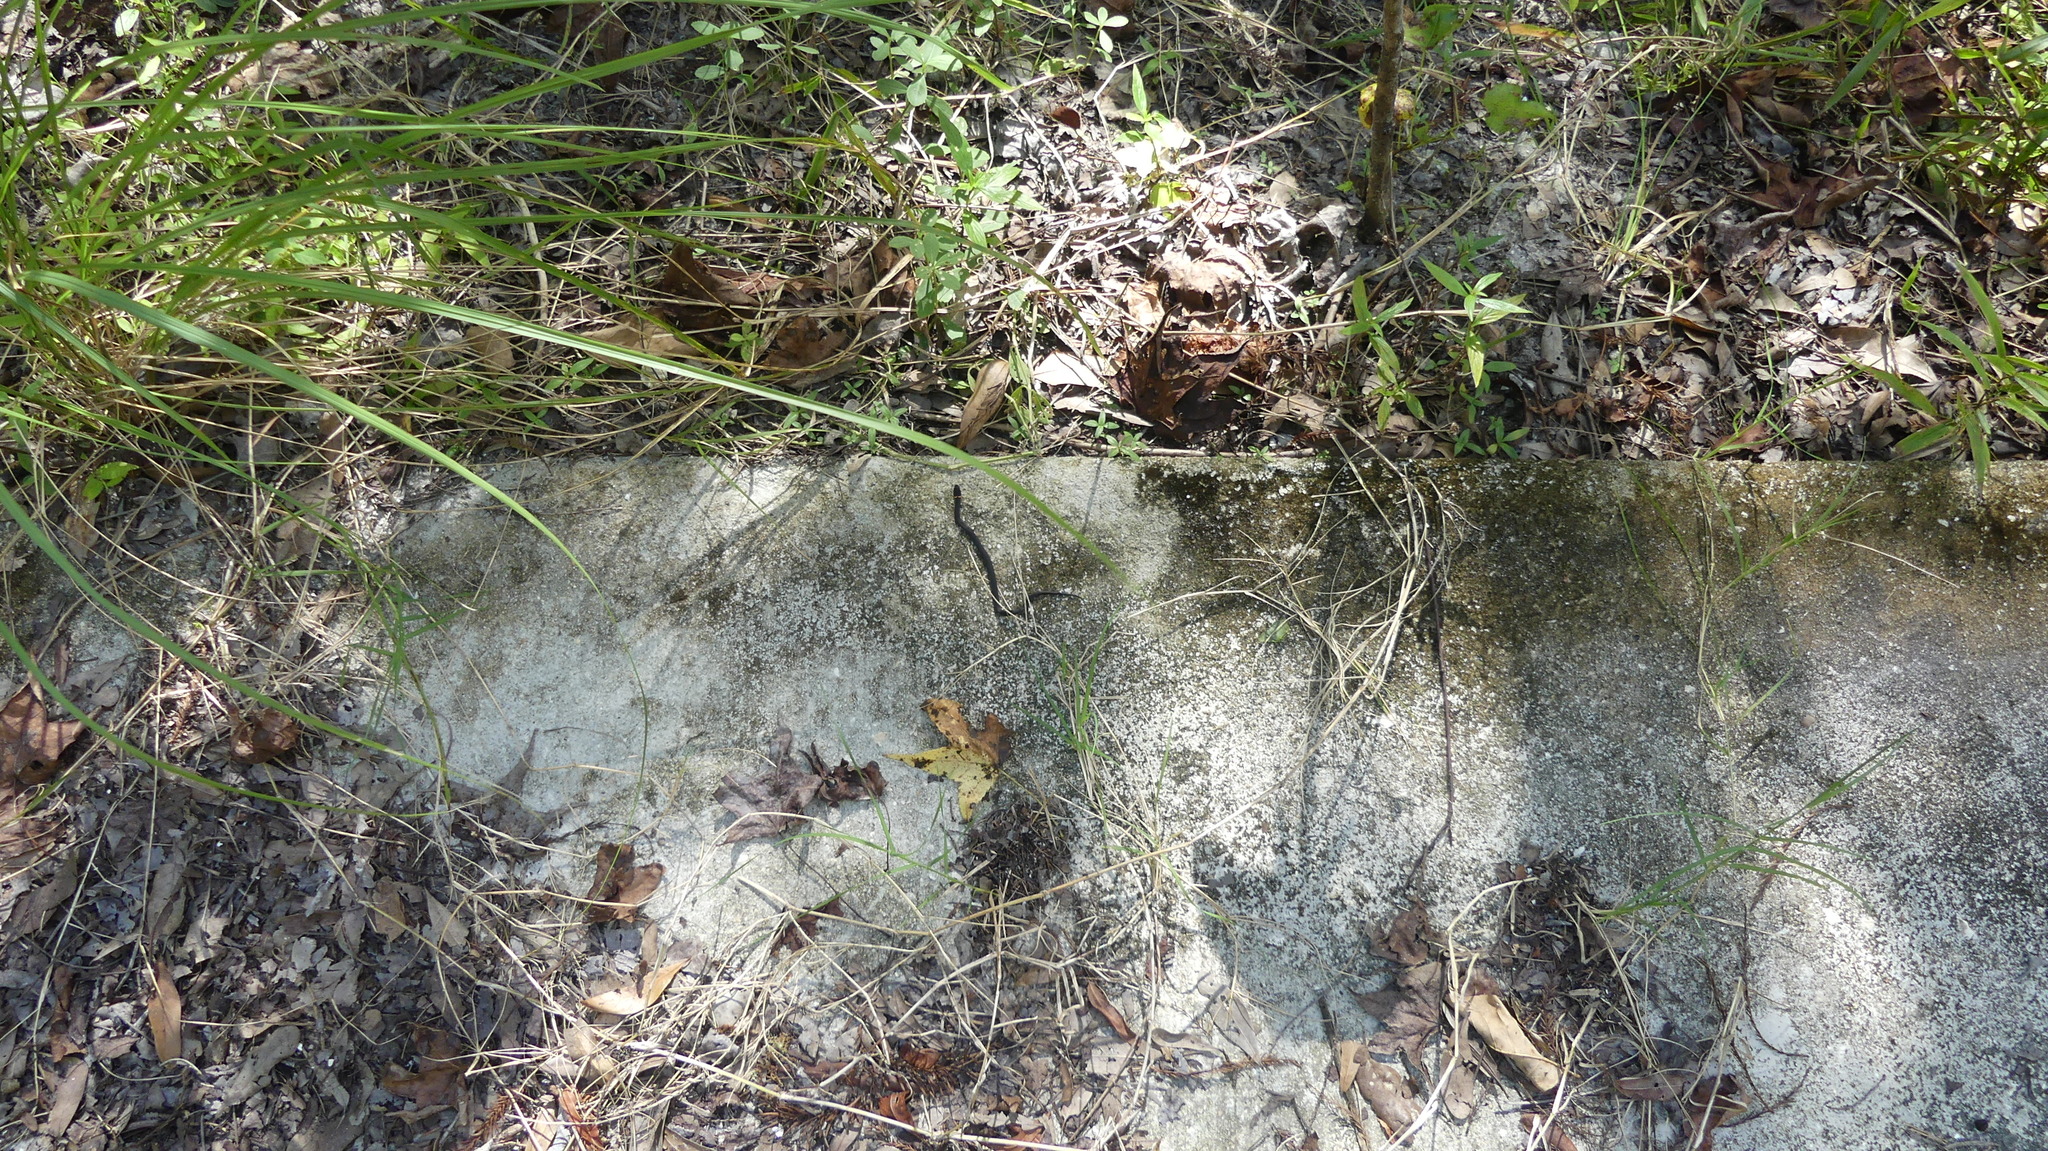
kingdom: Animalia
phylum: Chordata
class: Squamata
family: Colubridae
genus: Diadophis
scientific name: Diadophis punctatus
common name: Ringneck snake
